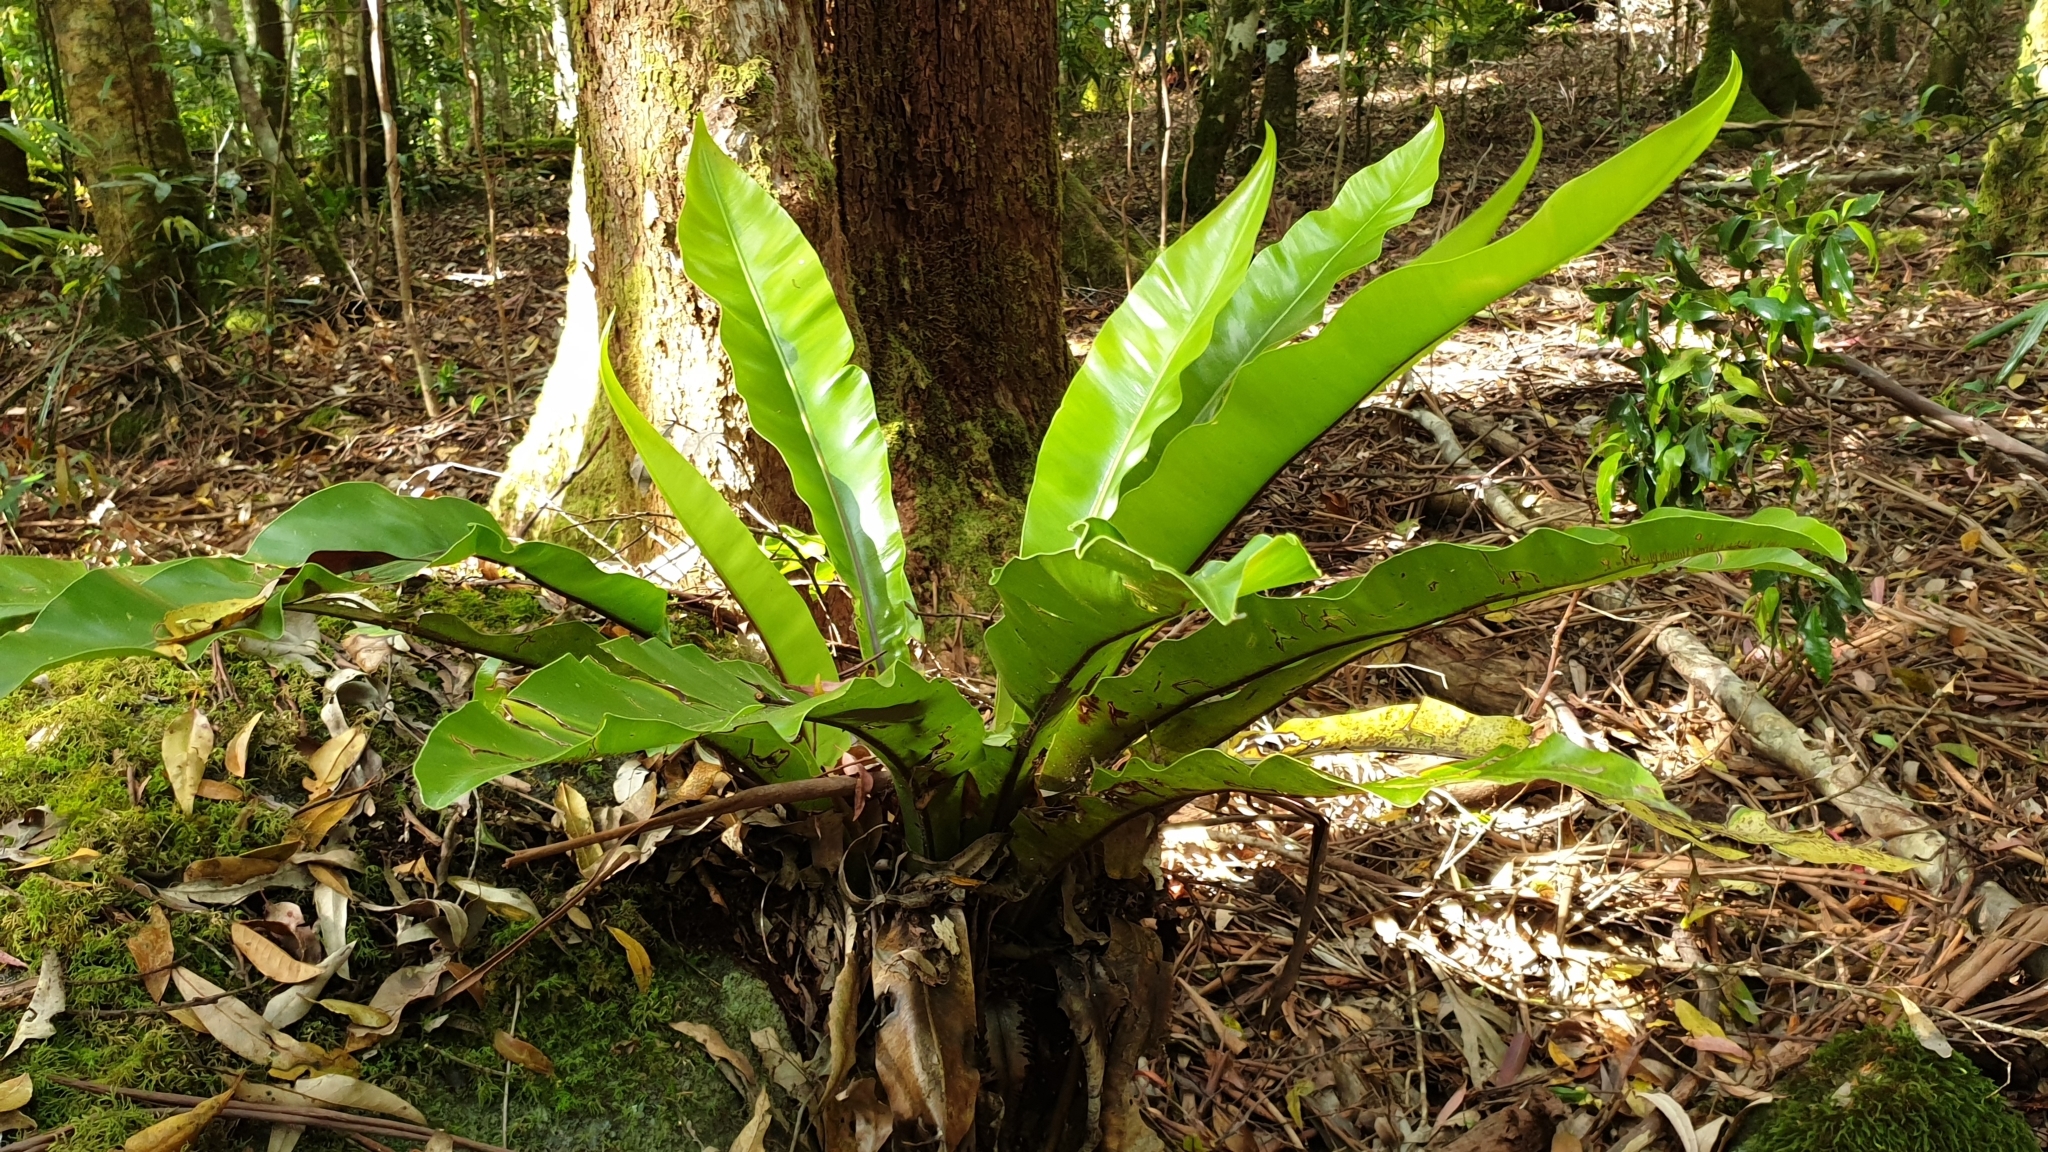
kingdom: Plantae
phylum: Tracheophyta
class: Polypodiopsida
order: Polypodiales
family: Aspleniaceae
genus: Asplenium
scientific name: Asplenium australasicum
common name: Bird's-nest fern
